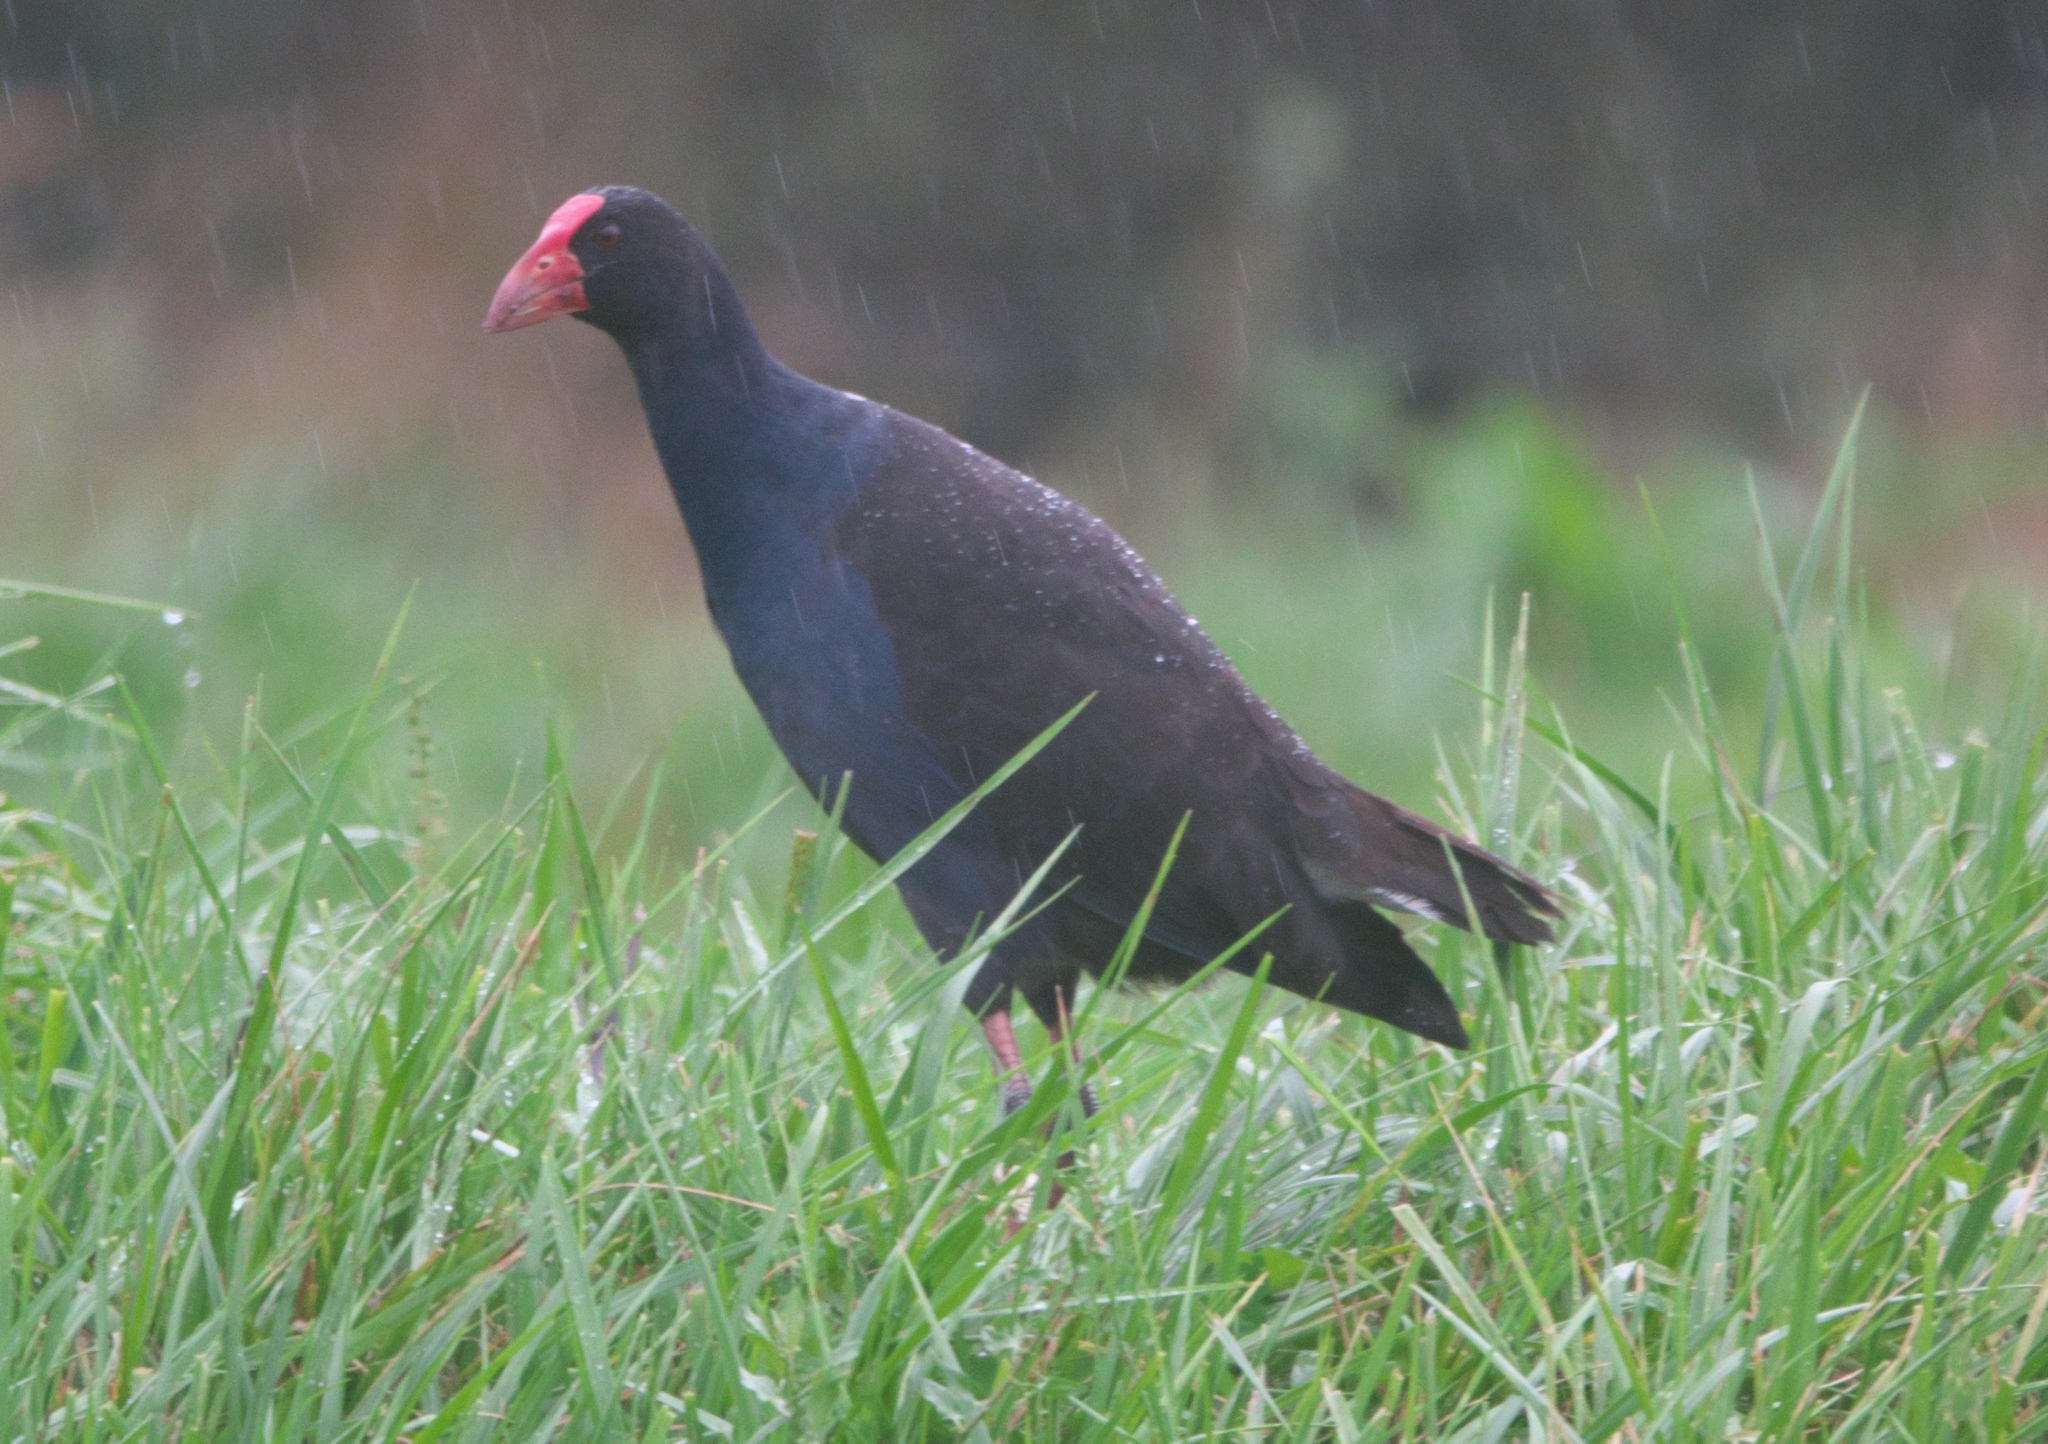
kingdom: Animalia
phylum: Chordata
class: Aves
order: Gruiformes
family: Rallidae
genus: Porphyrio
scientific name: Porphyrio melanotus
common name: Australasian swamphen
